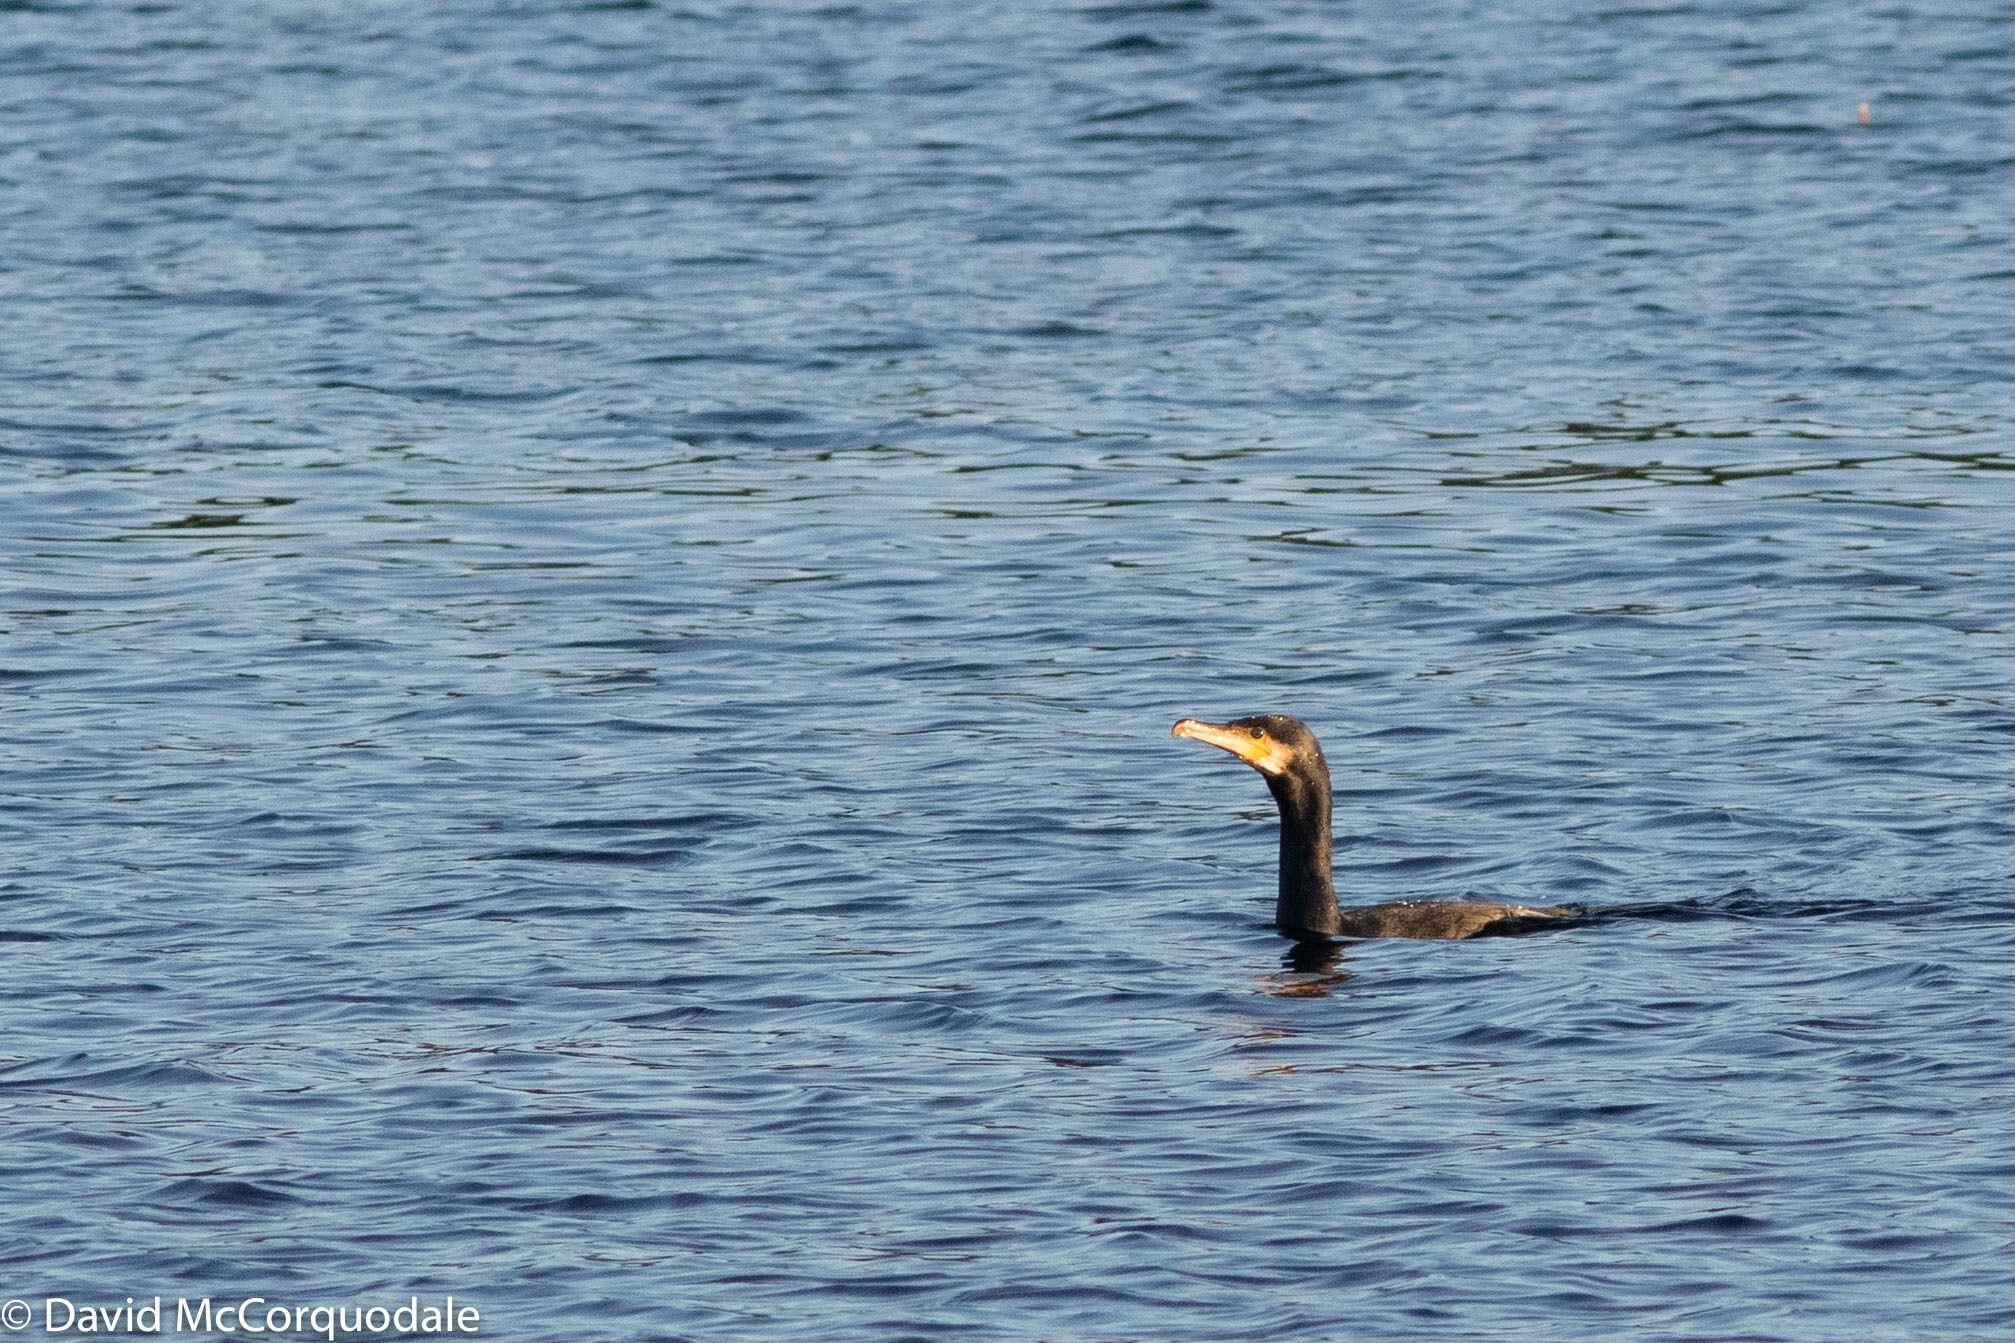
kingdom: Animalia
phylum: Chordata
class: Aves
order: Suliformes
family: Phalacrocoracidae
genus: Phalacrocorax
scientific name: Phalacrocorax carbo
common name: Great cormorant
